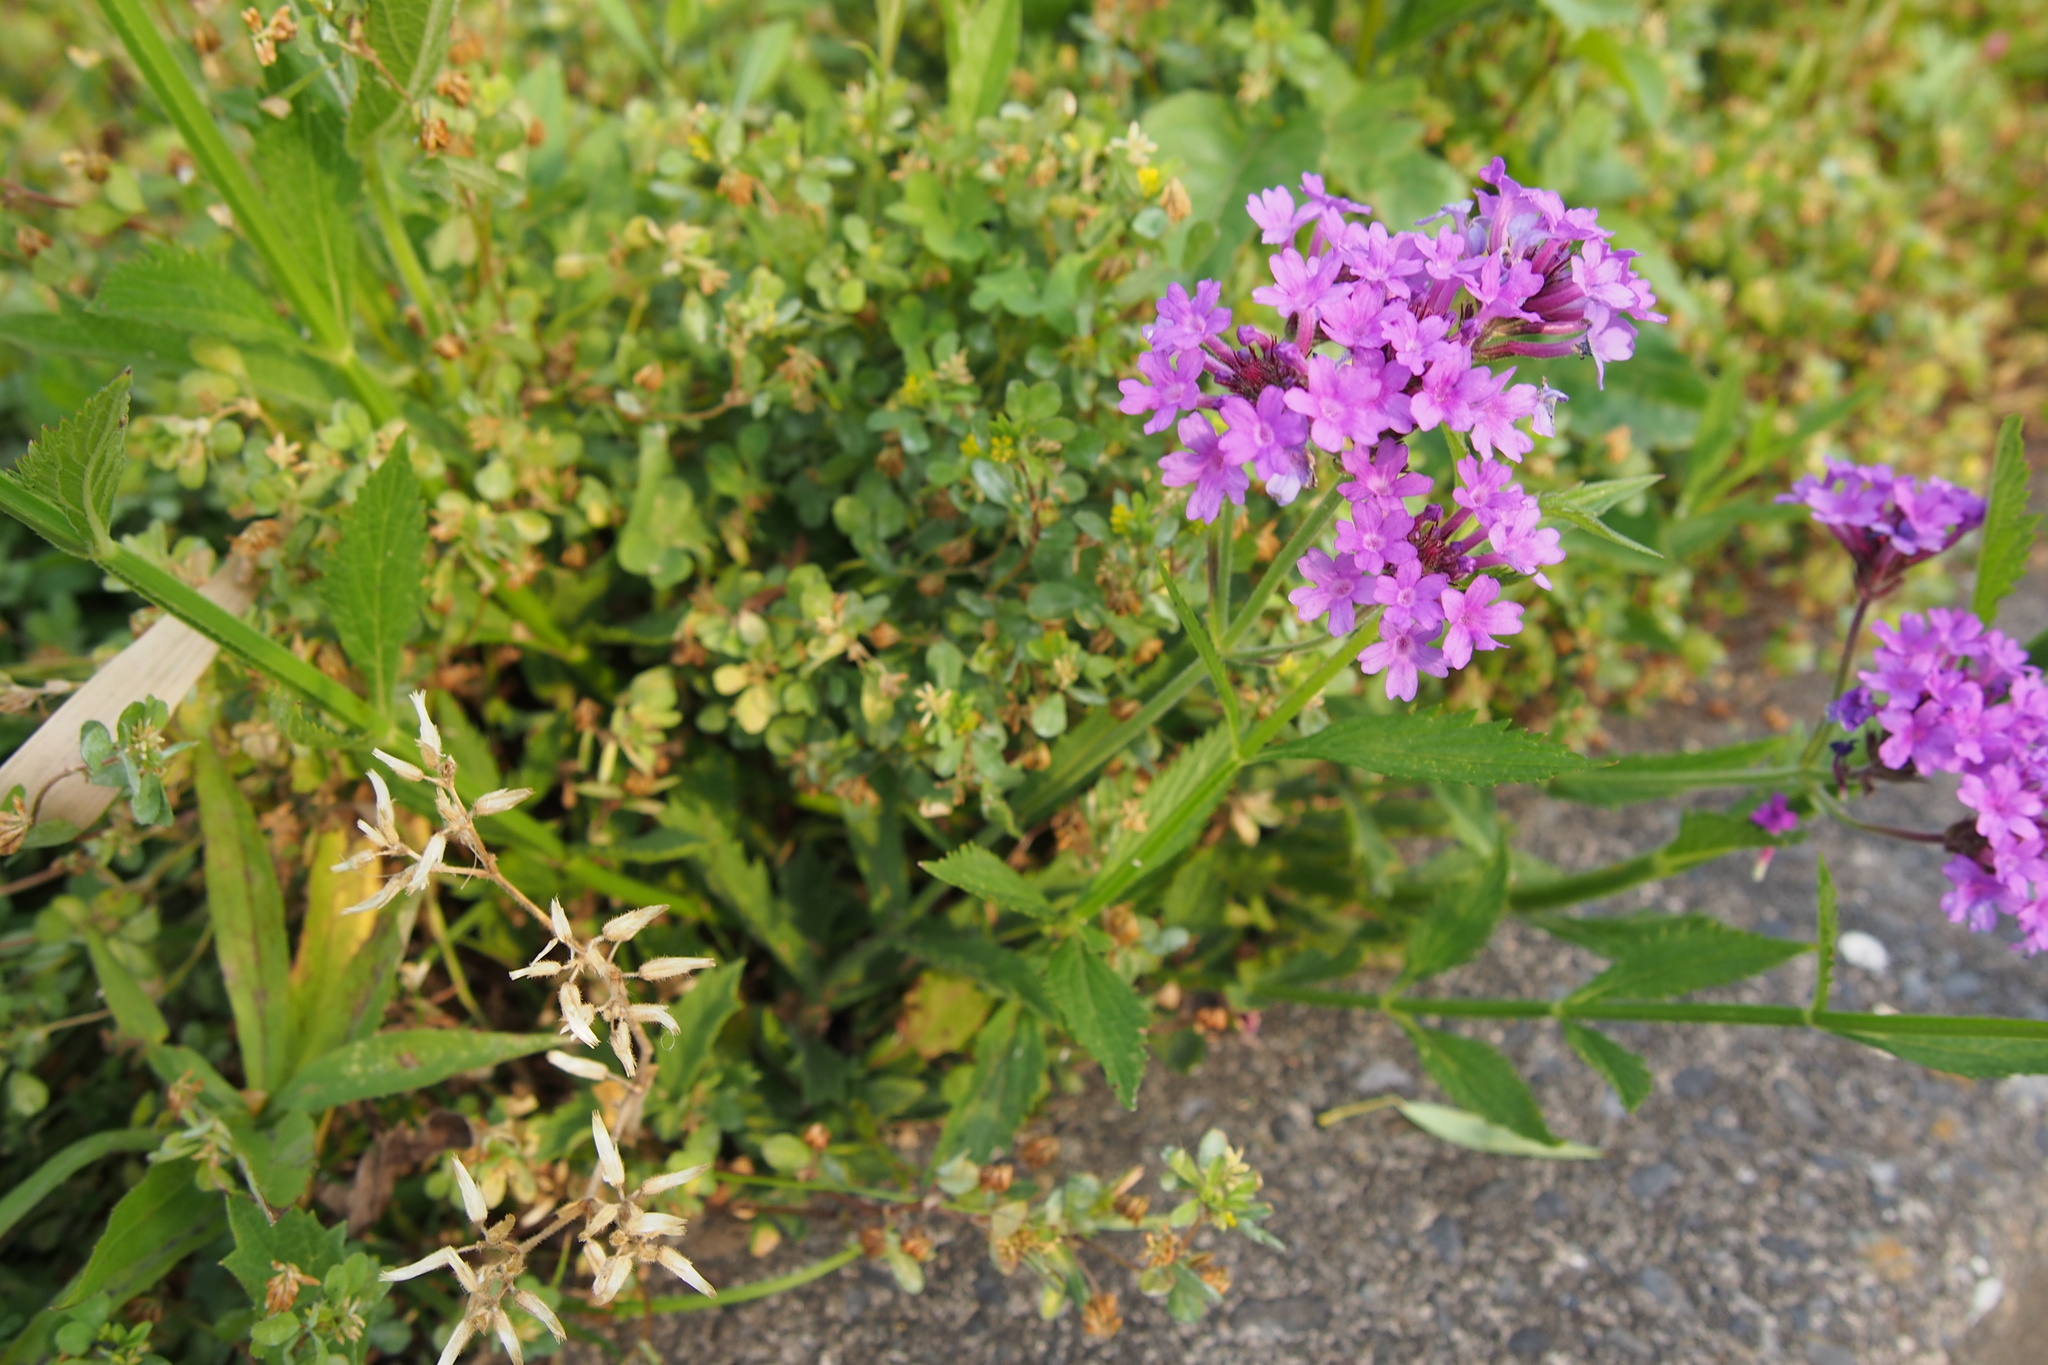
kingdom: Plantae
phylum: Tracheophyta
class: Magnoliopsida
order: Lamiales
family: Verbenaceae
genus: Verbena
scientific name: Verbena rigida
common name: Slender vervain
